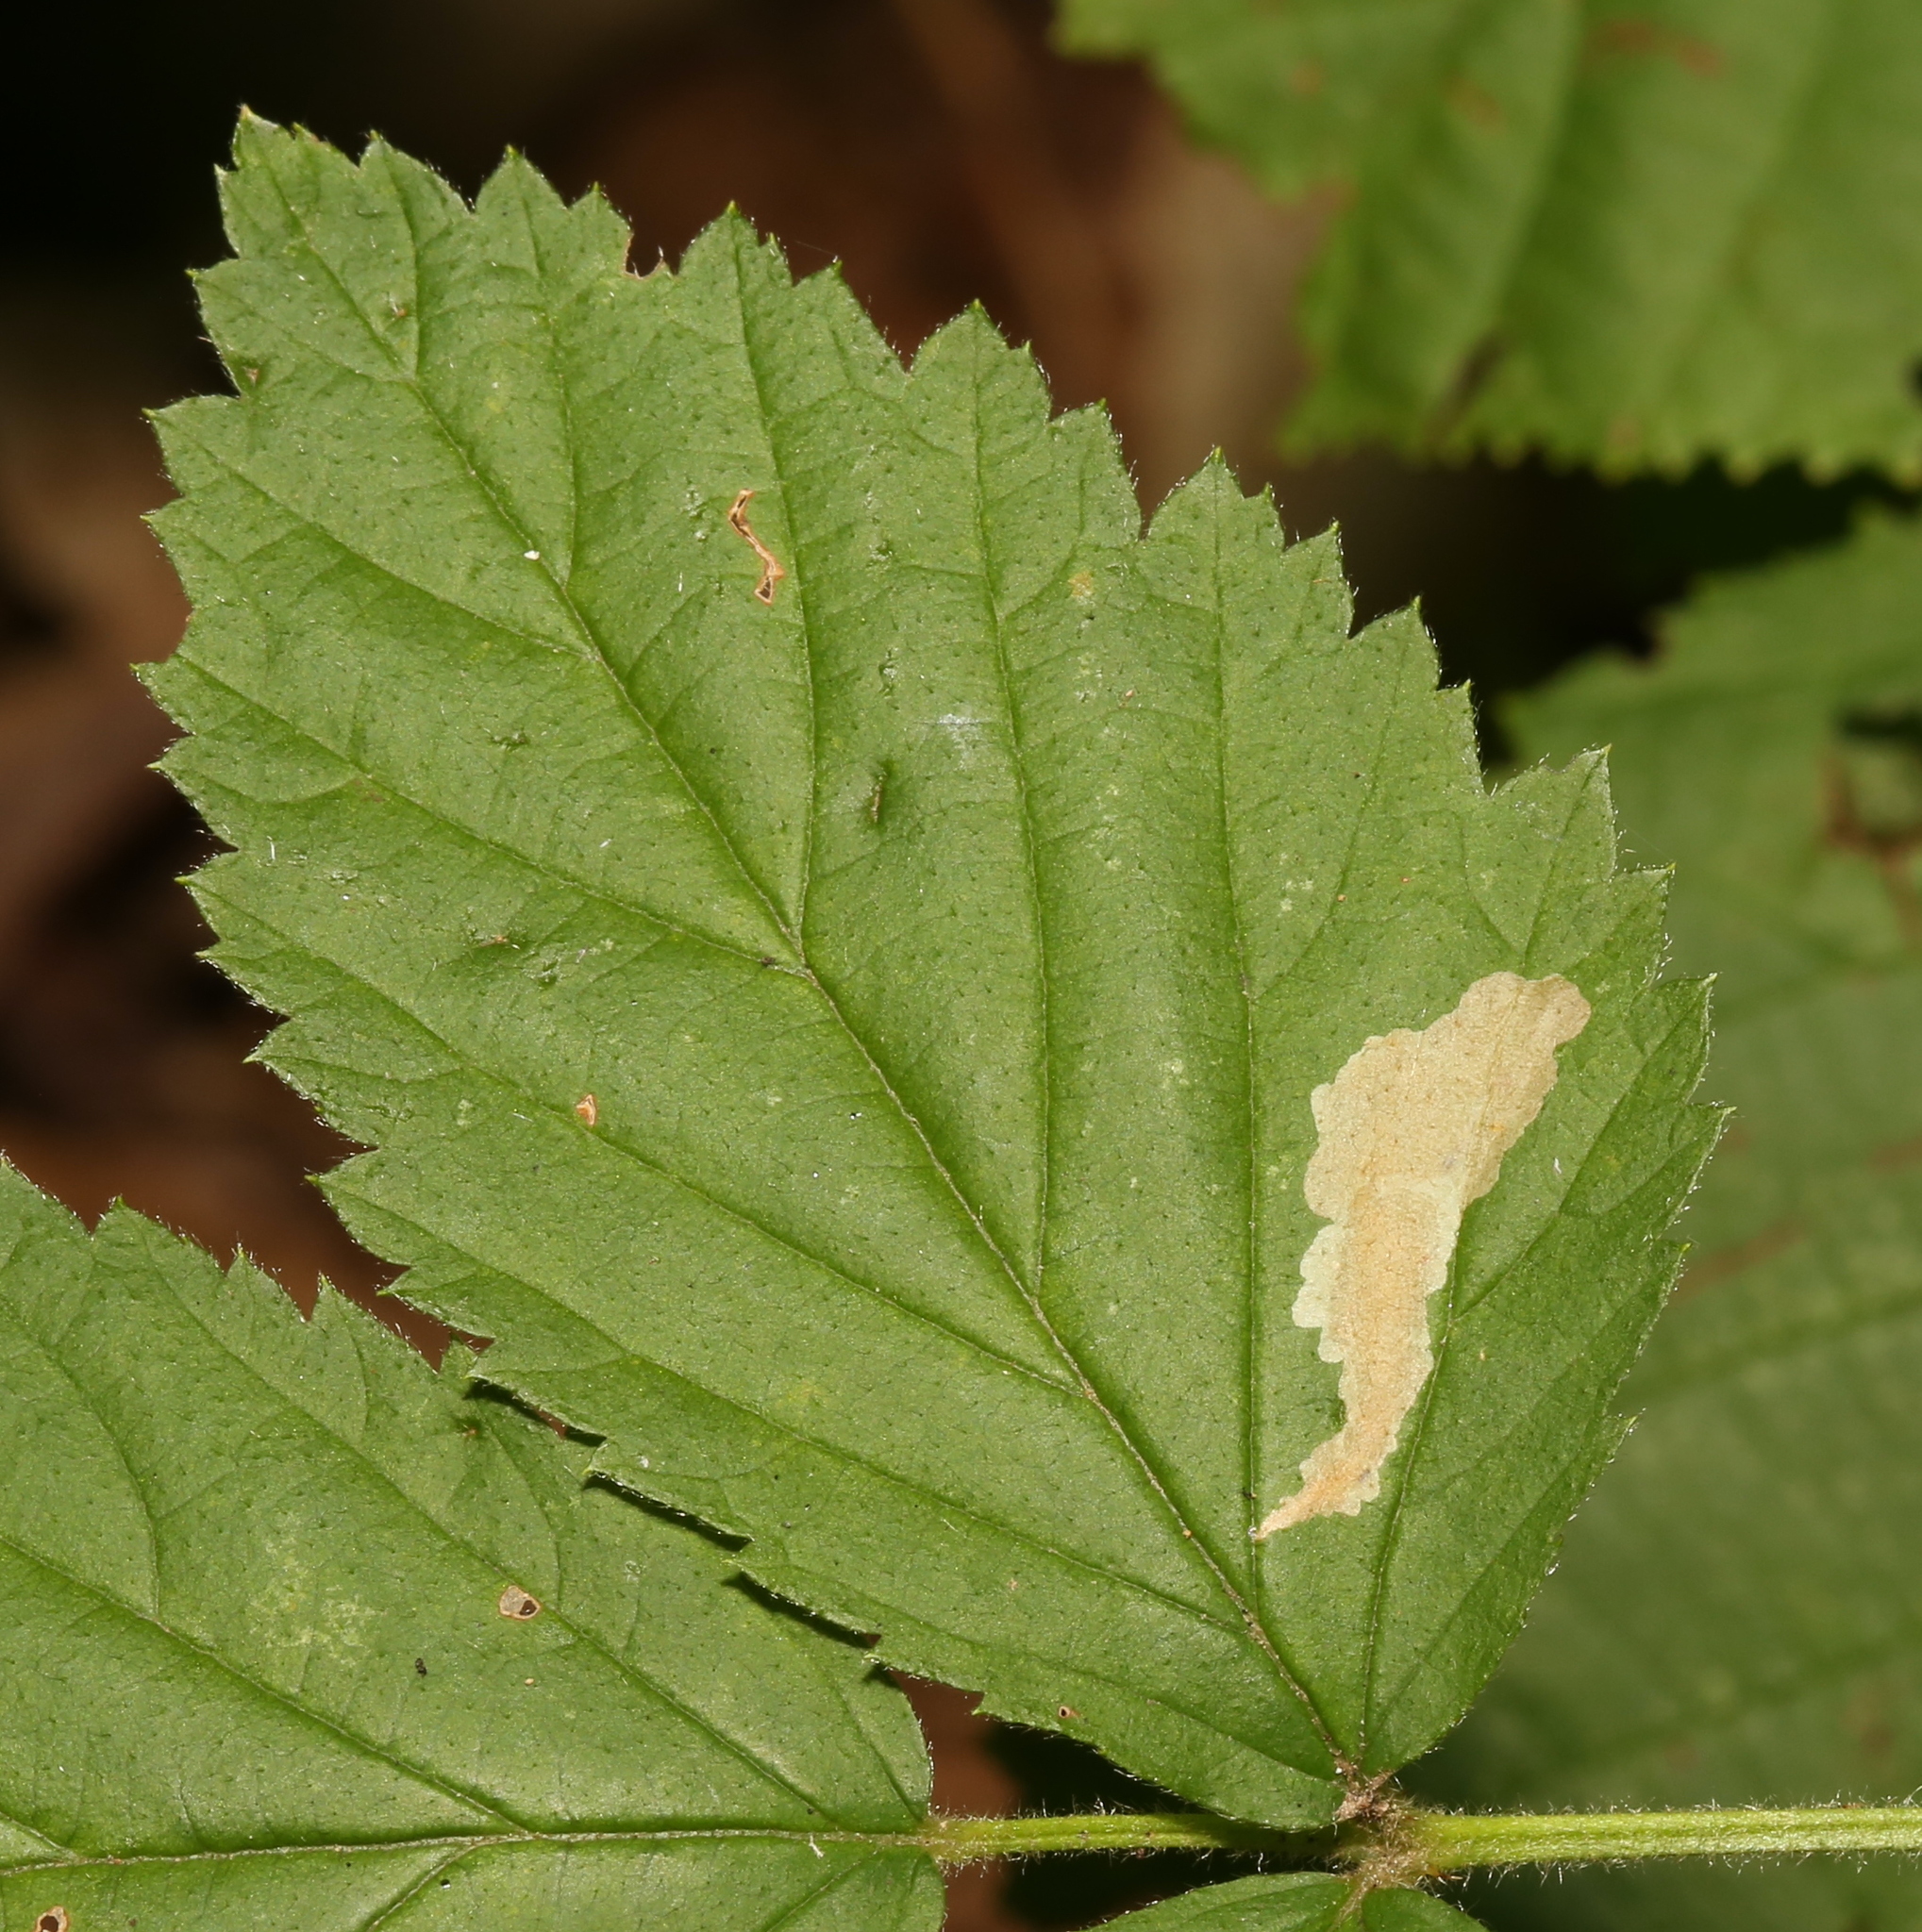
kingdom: Animalia
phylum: Arthropoda
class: Insecta
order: Lepidoptera
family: Tischeriidae
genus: Coptotriche
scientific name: Coptotriche aenea
